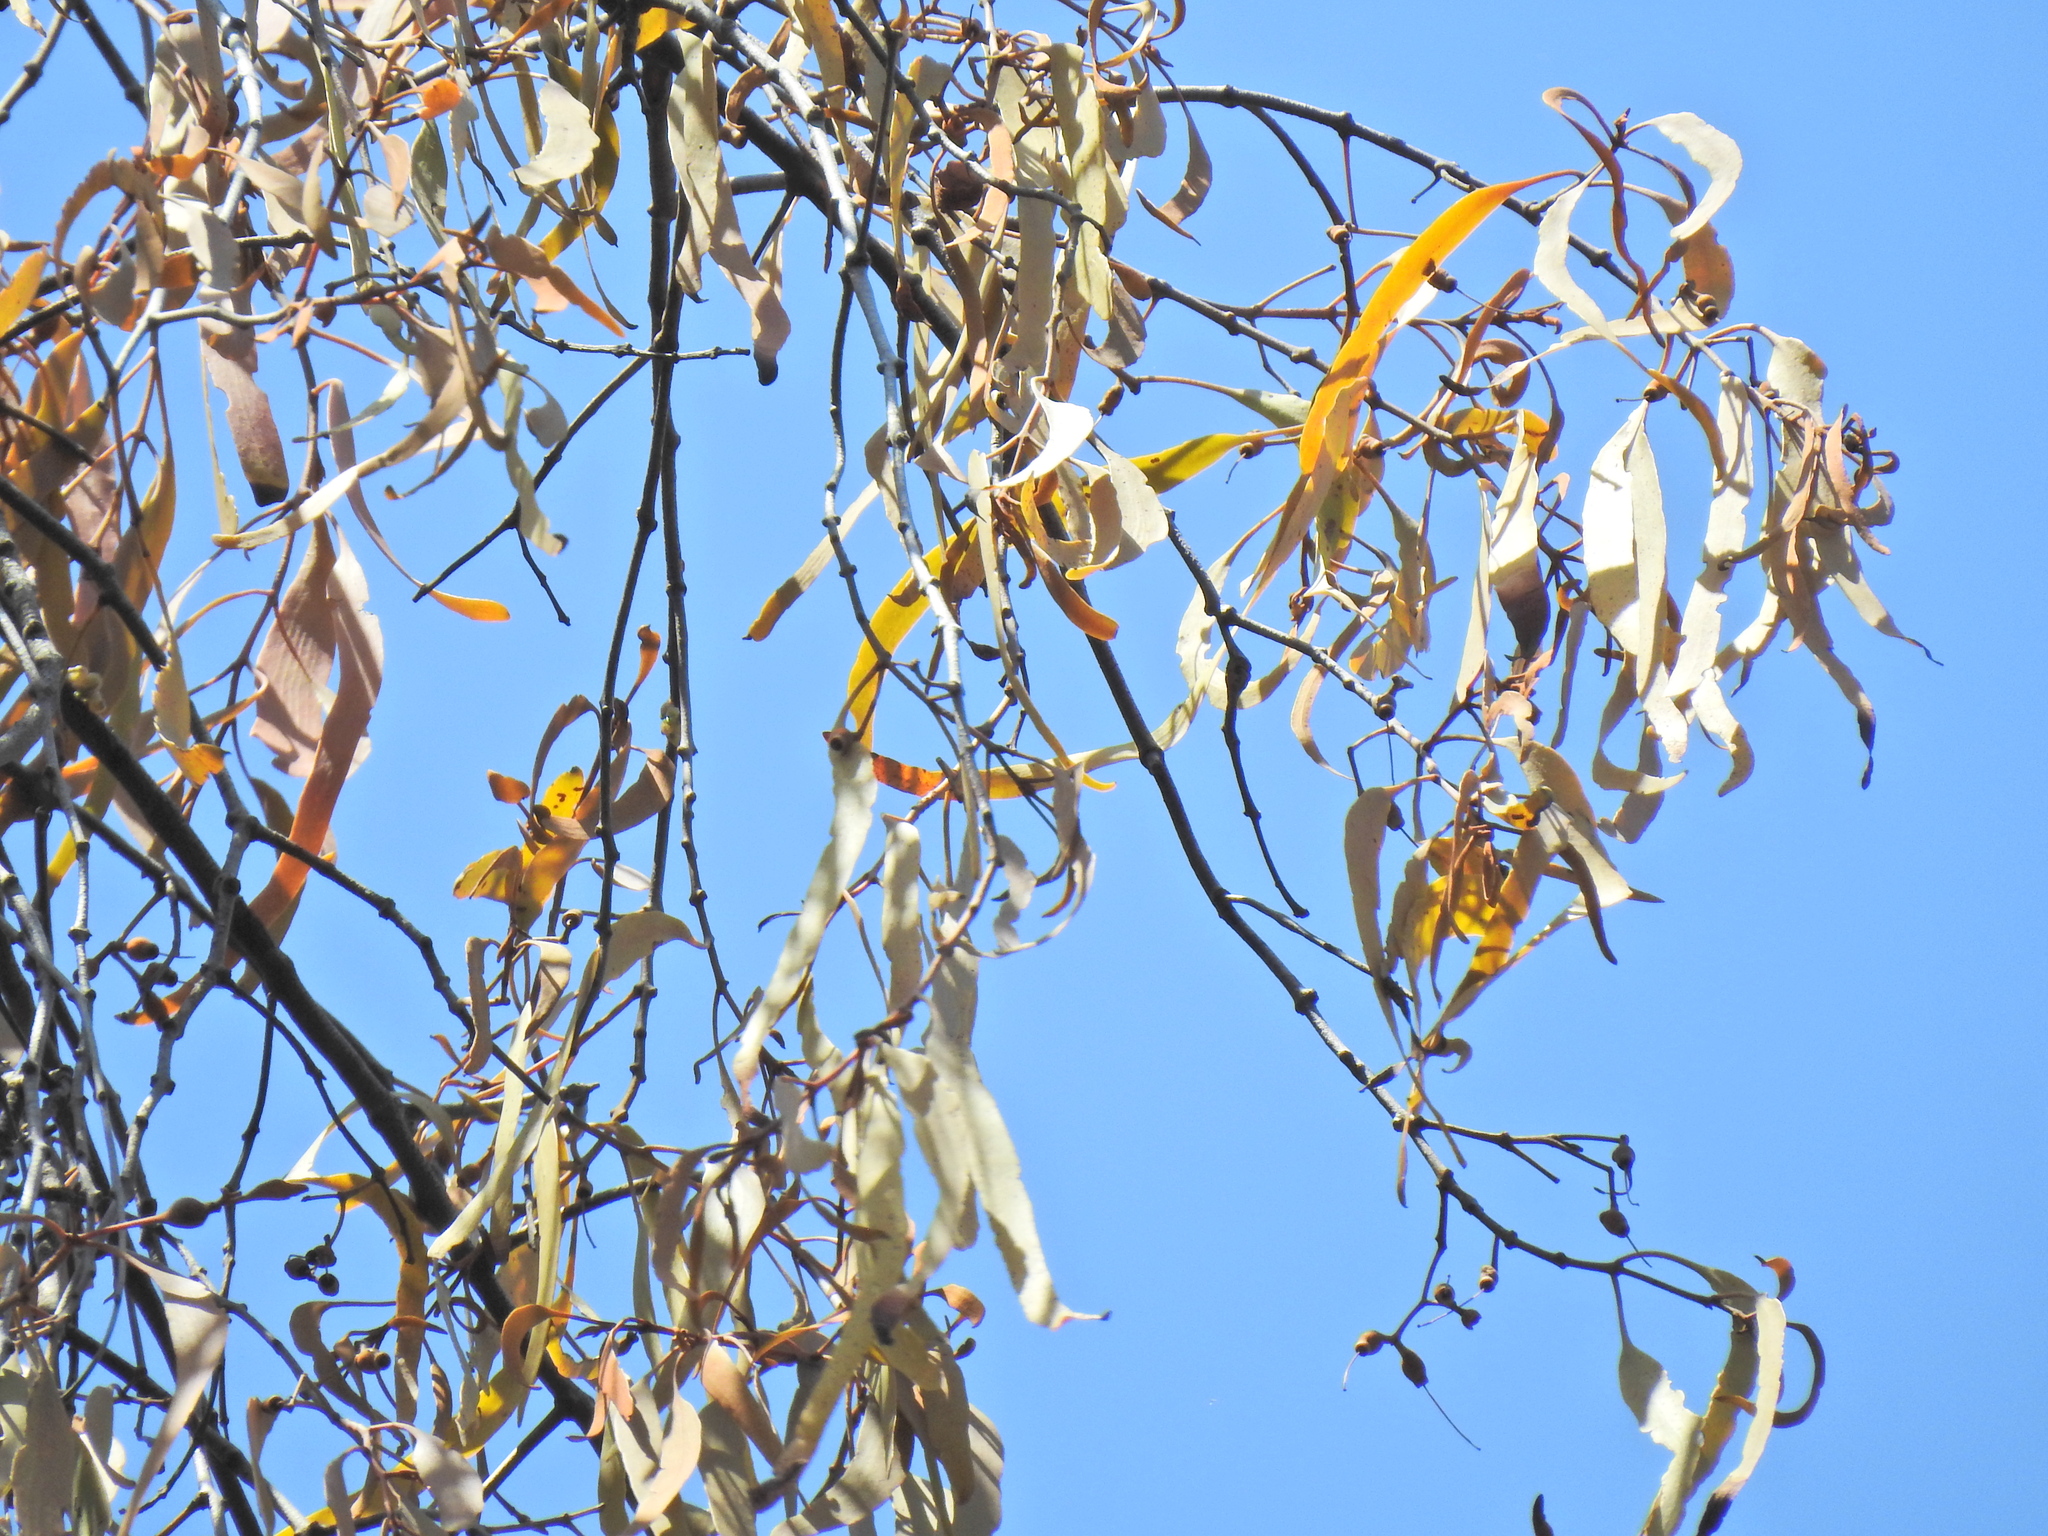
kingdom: Plantae
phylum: Tracheophyta
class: Magnoliopsida
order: Santalales
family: Loranthaceae
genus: Amyema
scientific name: Amyema bifurcata
